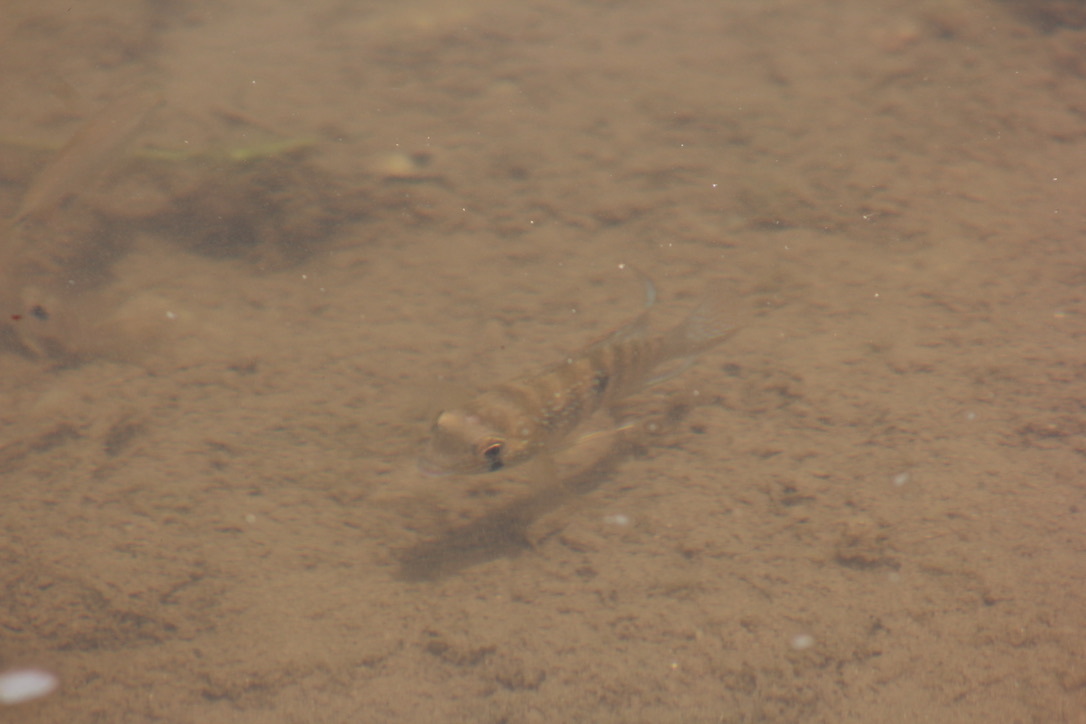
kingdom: Animalia
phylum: Chordata
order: Perciformes
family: Cichlidae
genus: Andinoacara
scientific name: Andinoacara pulcher
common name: Blue acara
